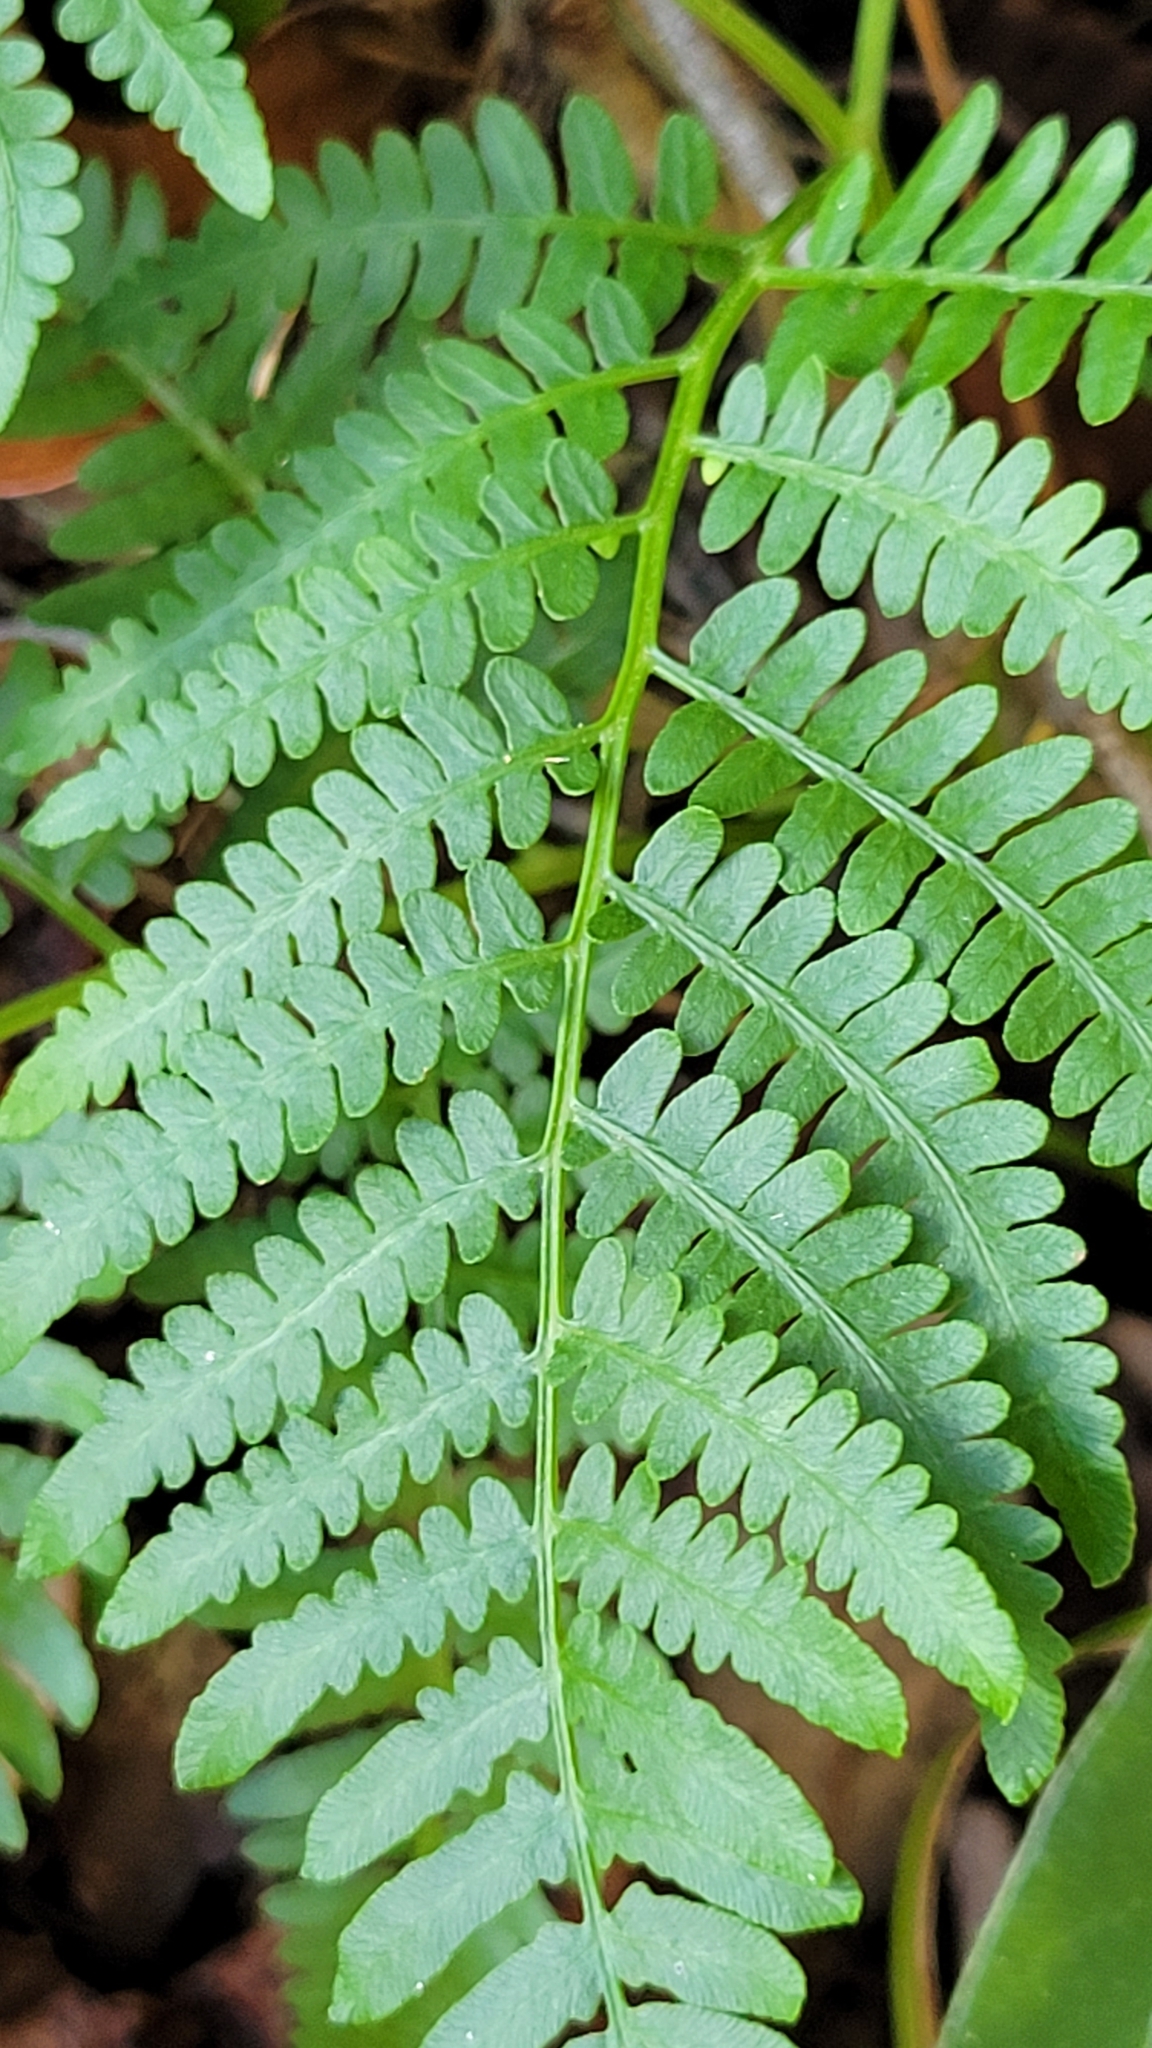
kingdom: Plantae
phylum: Tracheophyta
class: Polypodiopsida
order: Polypodiales
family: Dennstaedtiaceae
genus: Pteridium
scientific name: Pteridium
